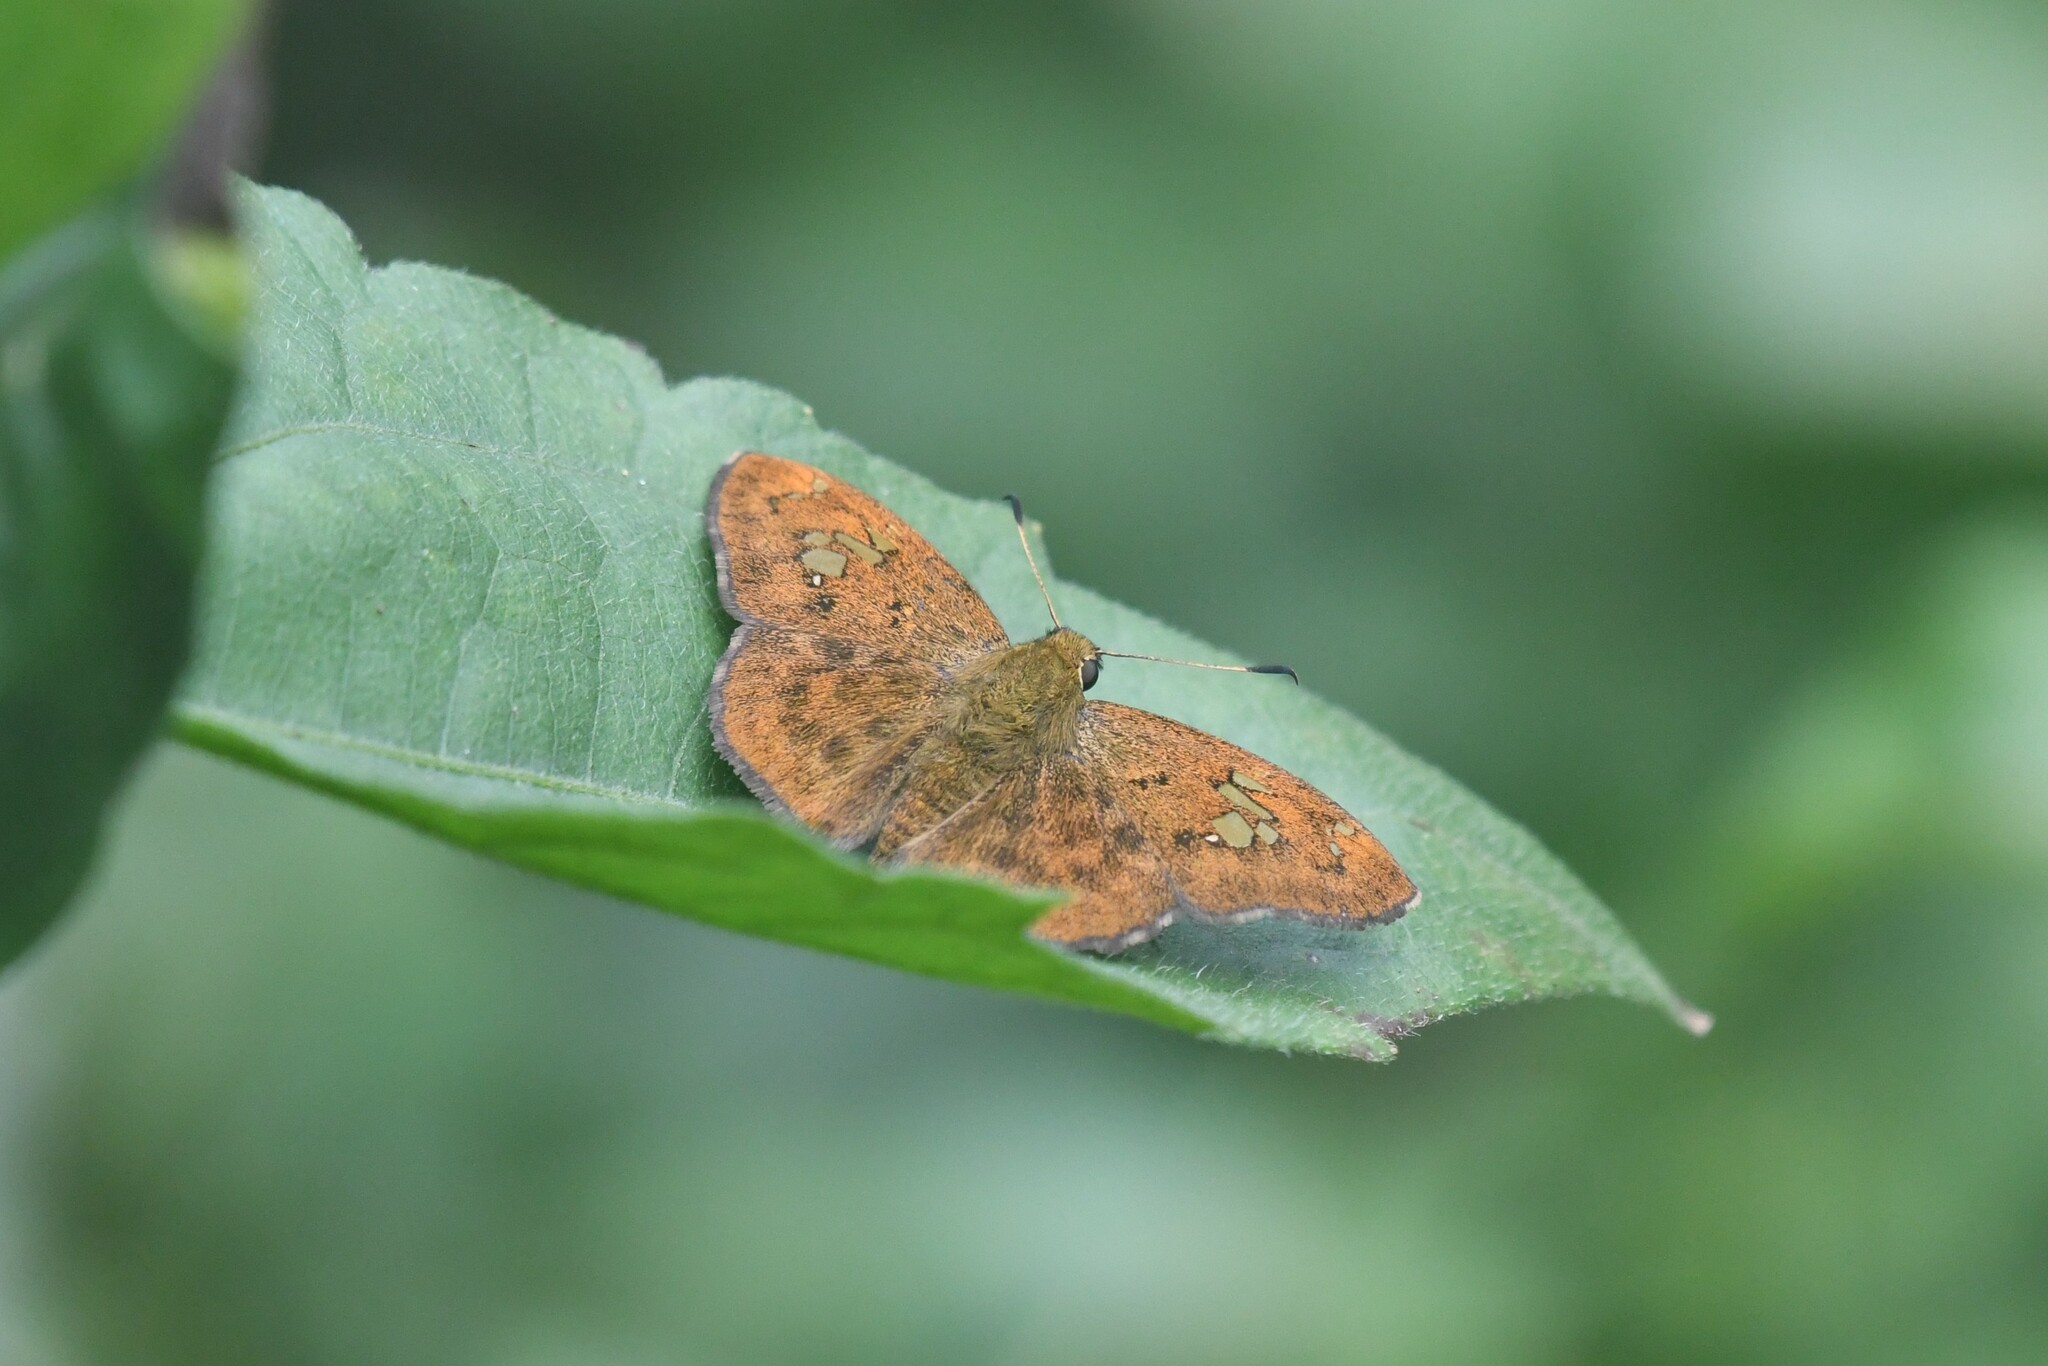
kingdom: Animalia
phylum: Arthropoda
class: Insecta
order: Lepidoptera
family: Hesperiidae
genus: Pseudocoladenia
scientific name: Pseudocoladenia dan
